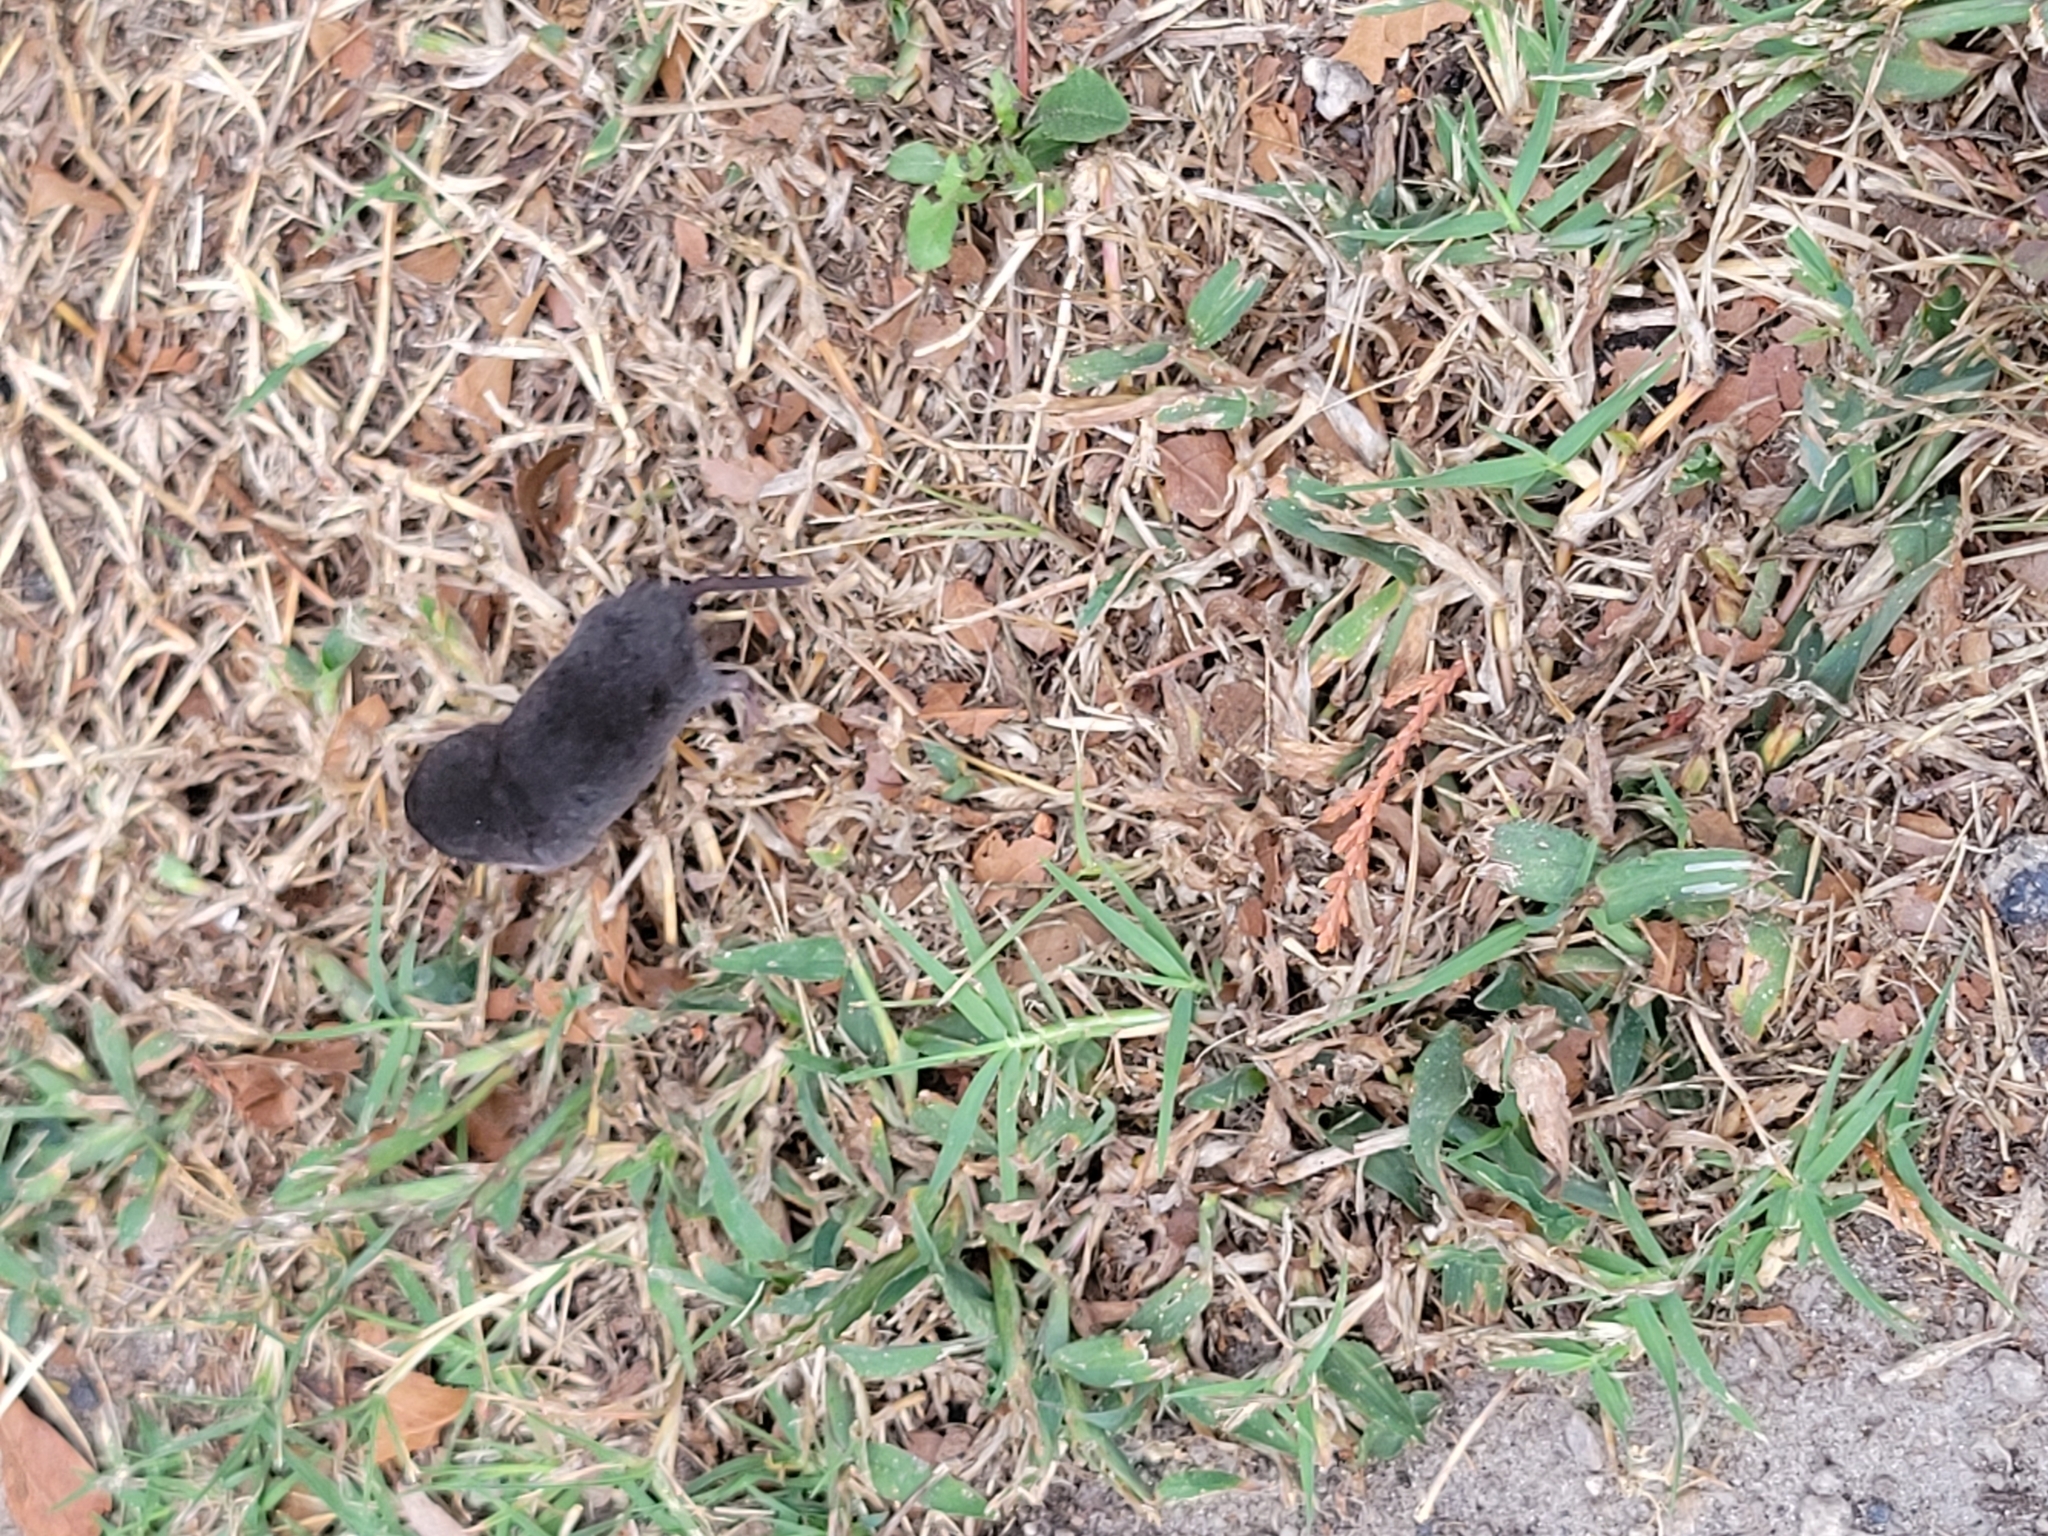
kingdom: Animalia
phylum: Chordata
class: Mammalia
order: Soricomorpha
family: Soricidae
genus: Blarina
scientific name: Blarina brevicauda
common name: Northern short-tailed shrew
